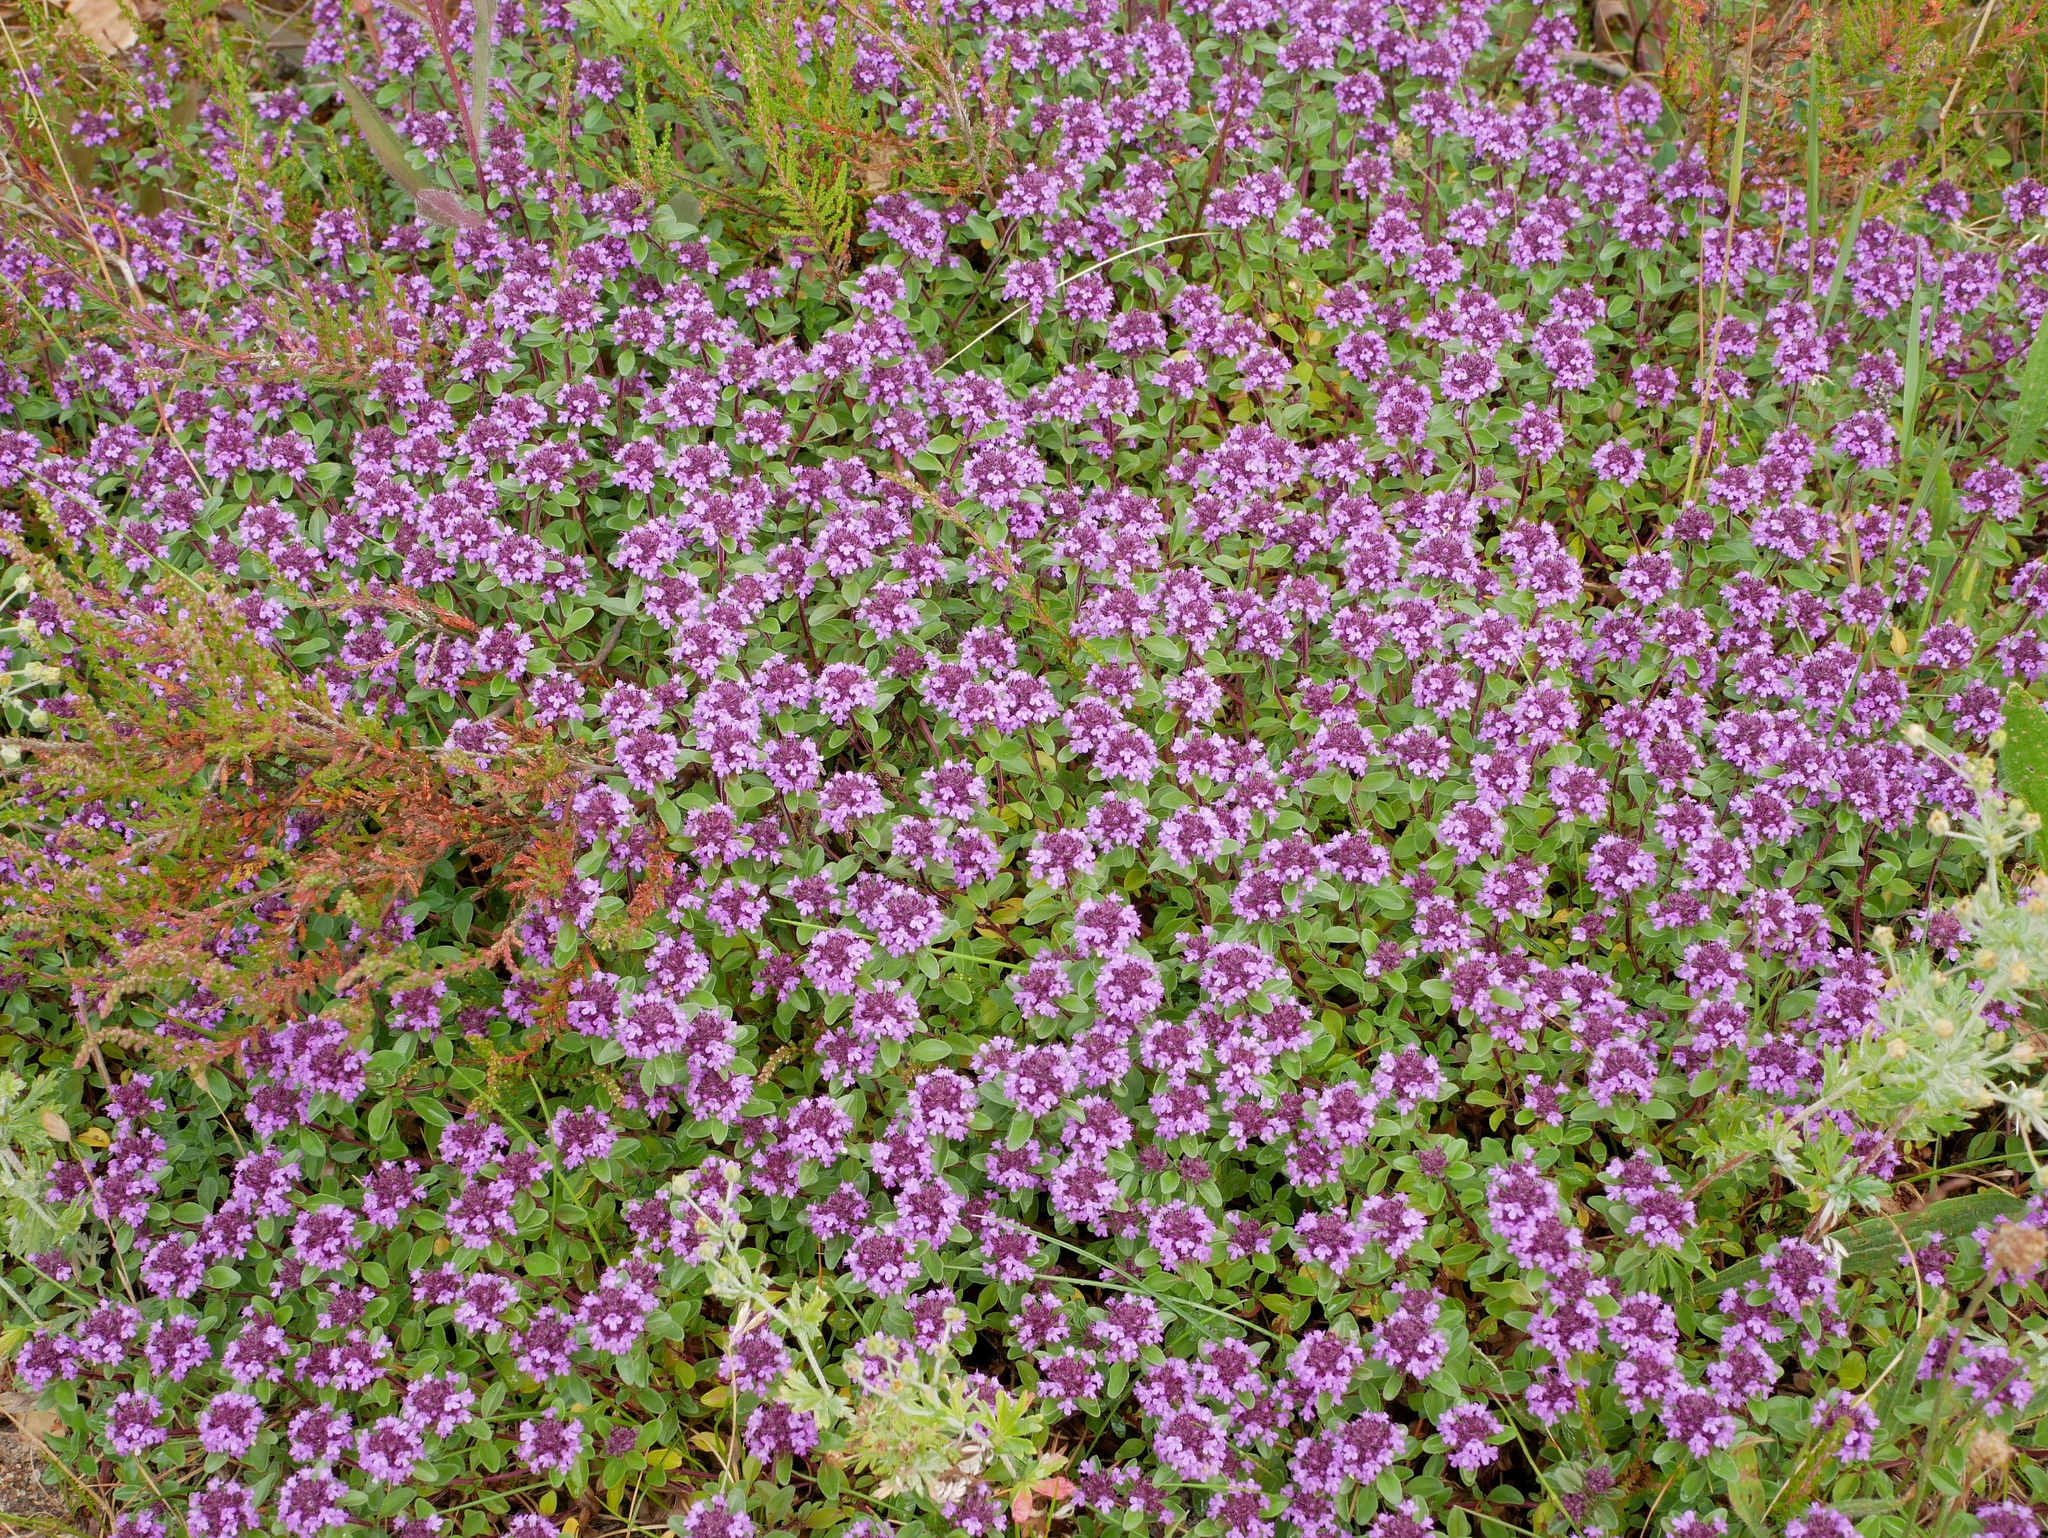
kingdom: Plantae
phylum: Tracheophyta
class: Magnoliopsida
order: Lamiales
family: Lamiaceae
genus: Thymus
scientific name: Thymus pulegioides
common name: Large thyme
